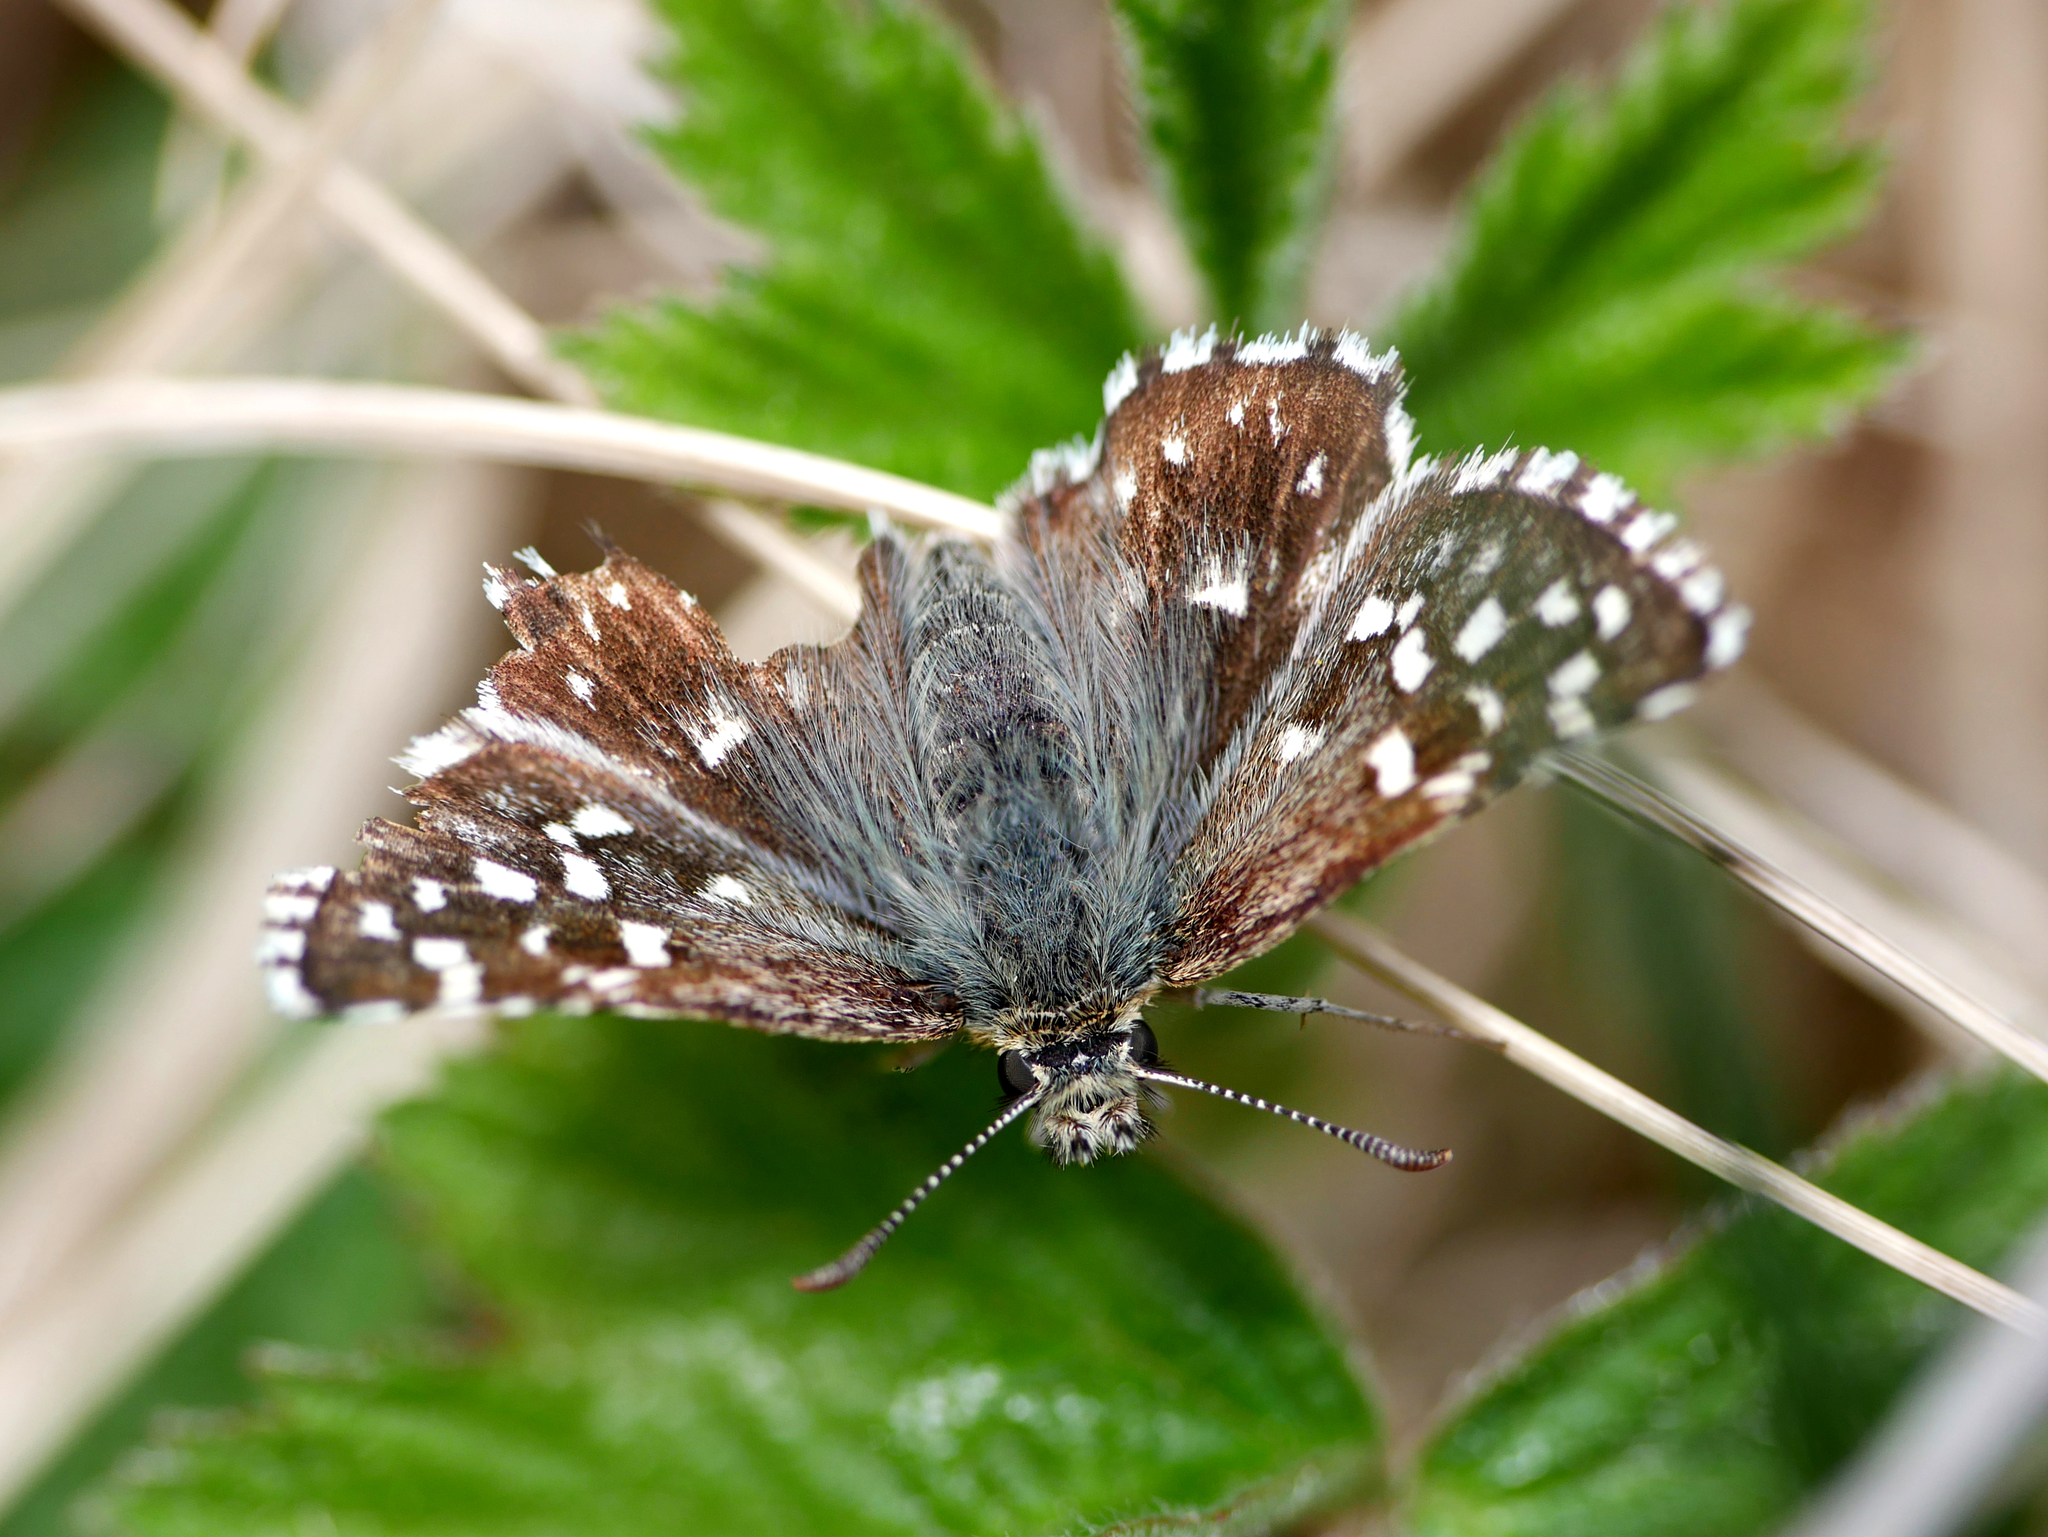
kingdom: Animalia
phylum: Arthropoda
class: Insecta
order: Lepidoptera
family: Hesperiidae
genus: Pyrgus
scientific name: Pyrgus malvae
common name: Grizzled skipper
